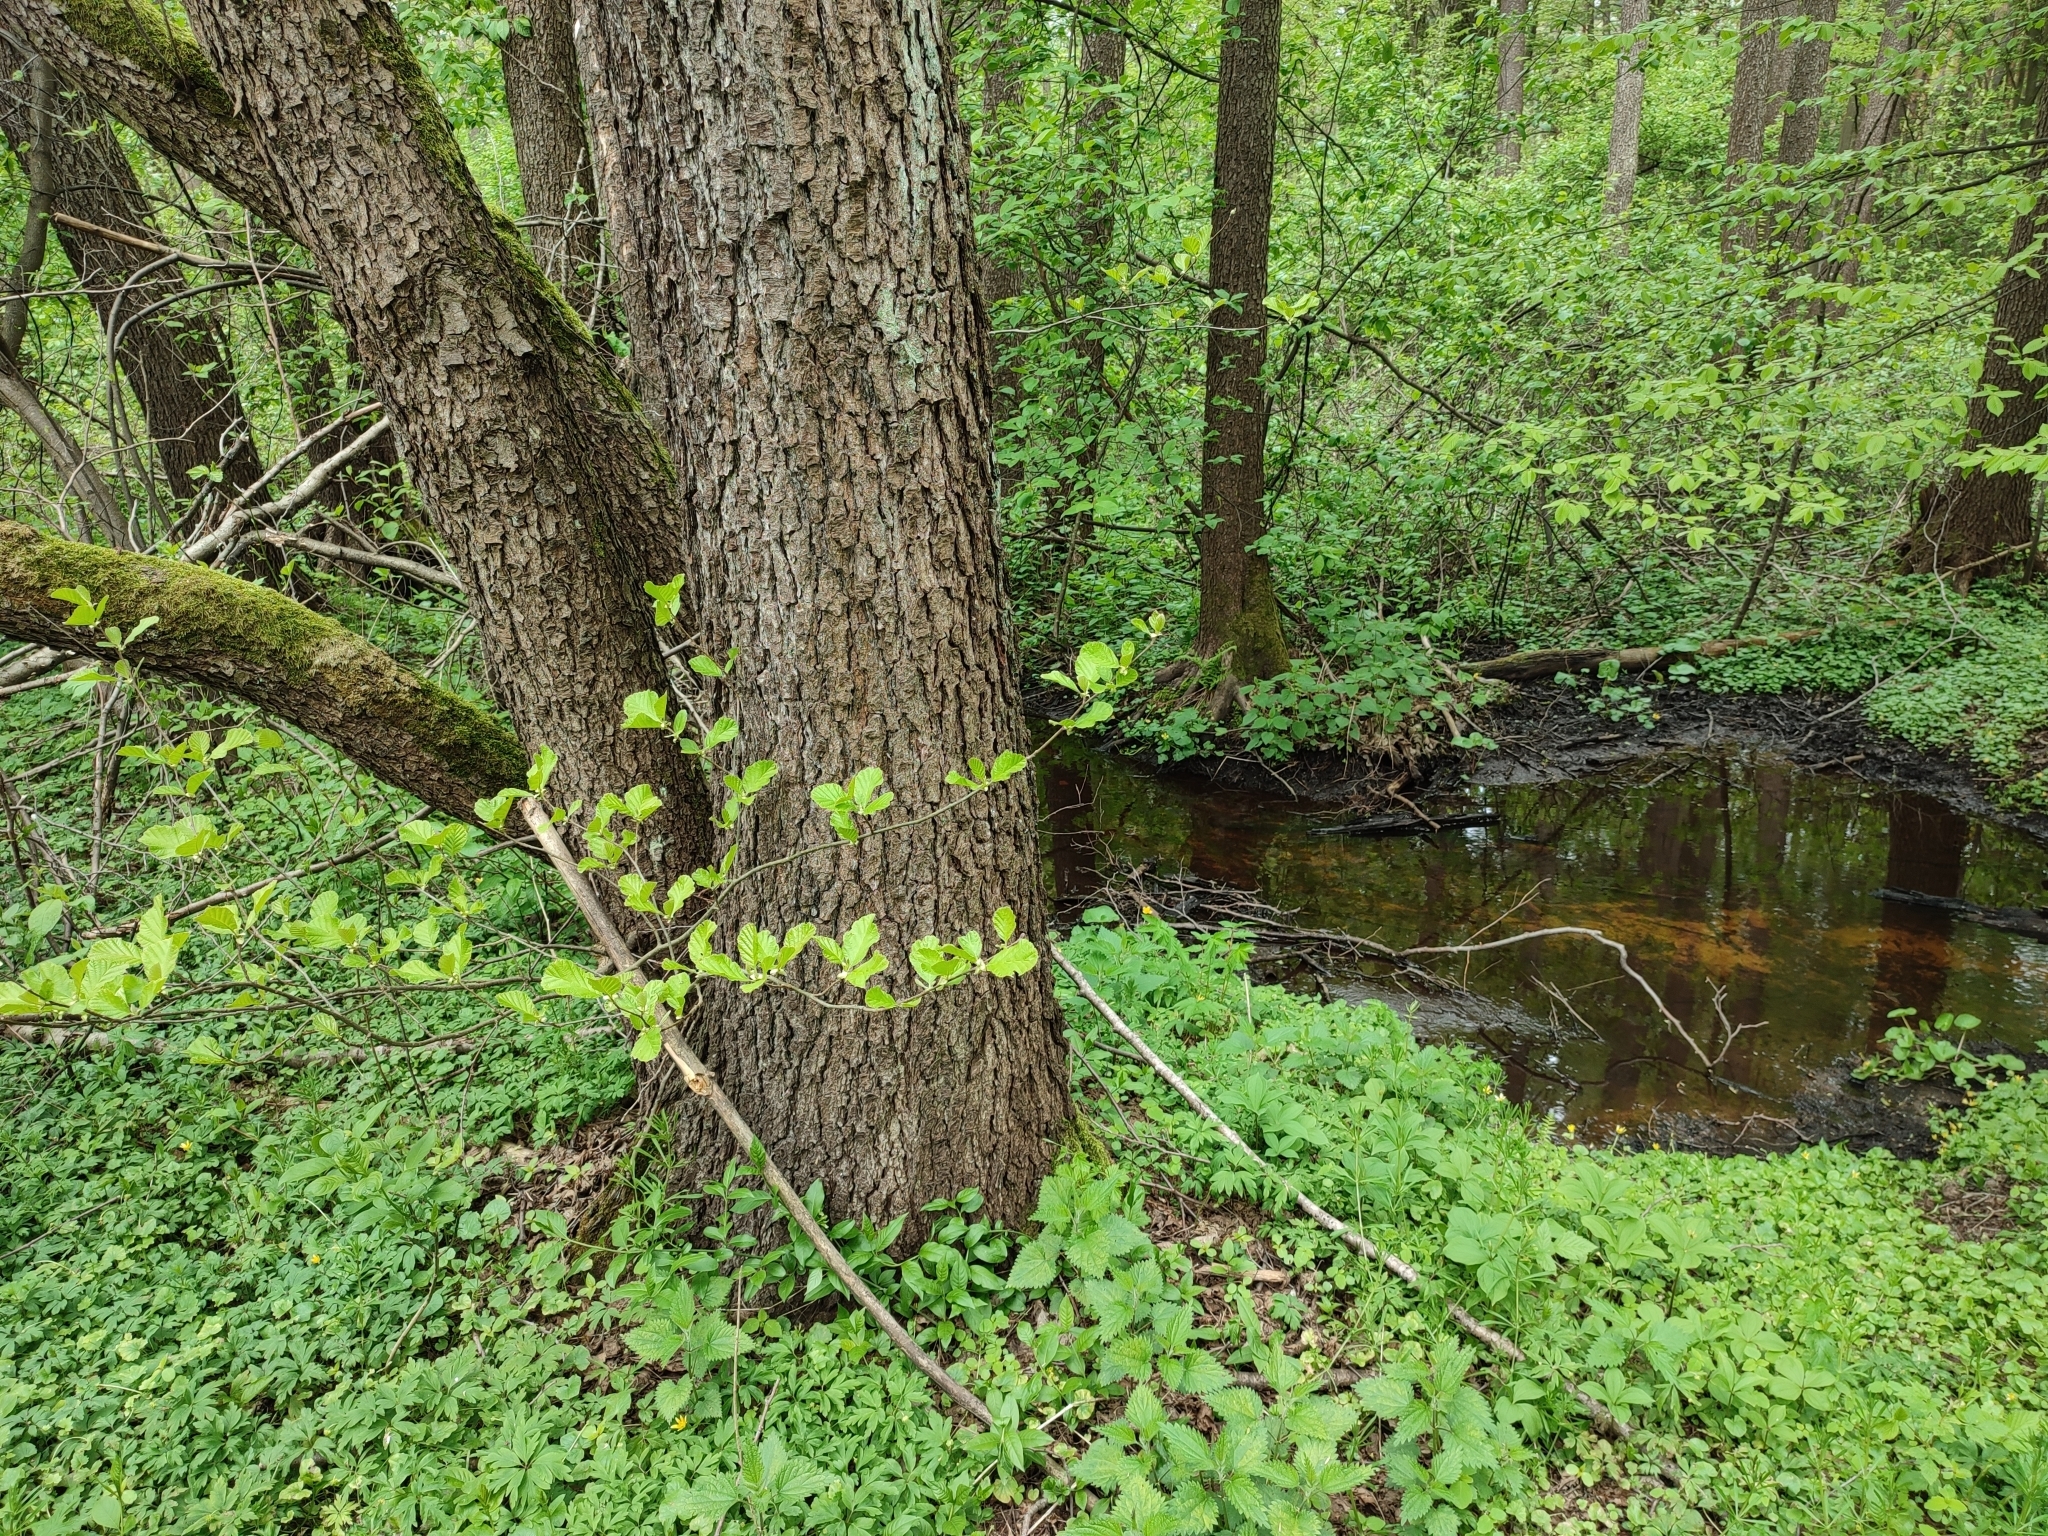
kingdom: Plantae
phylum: Tracheophyta
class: Magnoliopsida
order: Fagales
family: Betulaceae
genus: Alnus
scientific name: Alnus glutinosa
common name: Black alder
